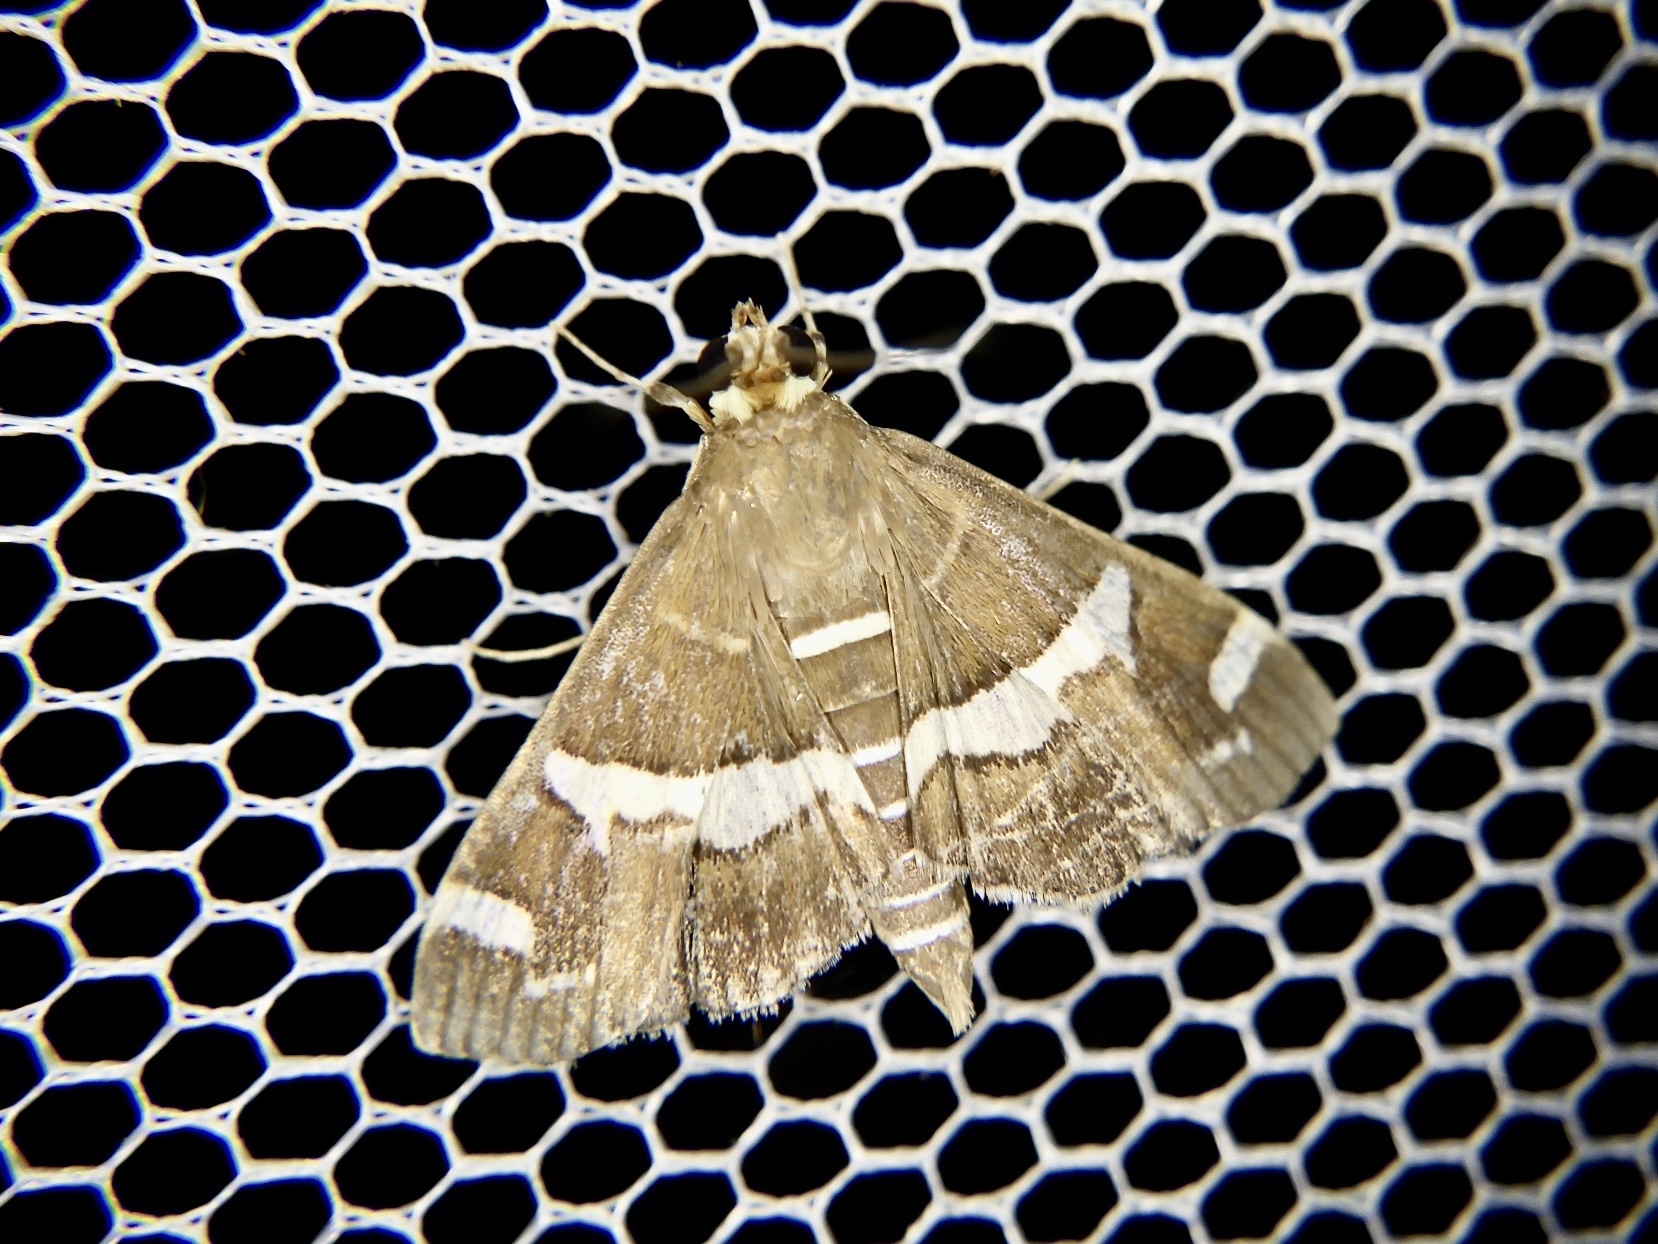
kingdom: Animalia
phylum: Arthropoda
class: Insecta
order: Lepidoptera
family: Crambidae
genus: Spoladea
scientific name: Spoladea recurvalis
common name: Beet webworm moth
